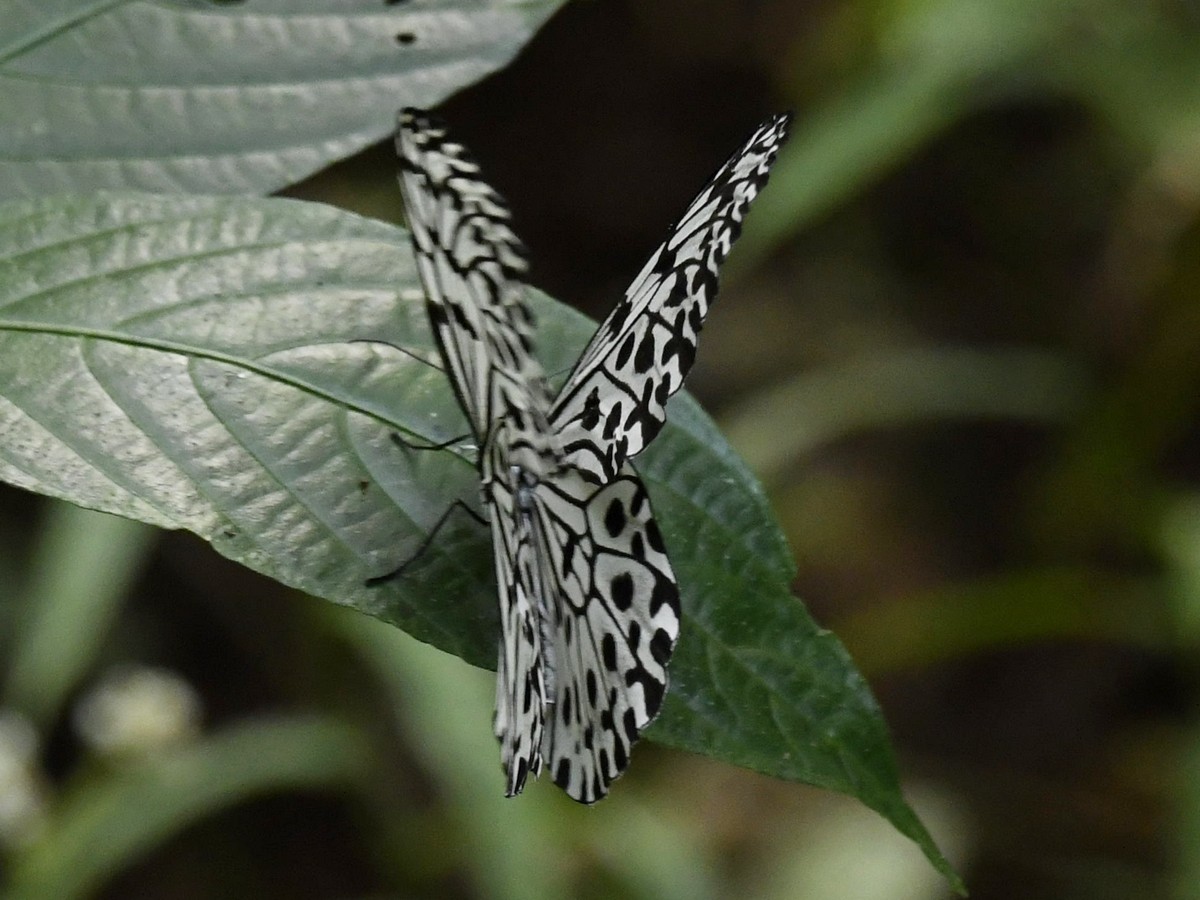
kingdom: Animalia
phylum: Arthropoda
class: Insecta
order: Lepidoptera
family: Nymphalidae
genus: Idea
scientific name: Idea malabarica
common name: Malabar tree-nymph
